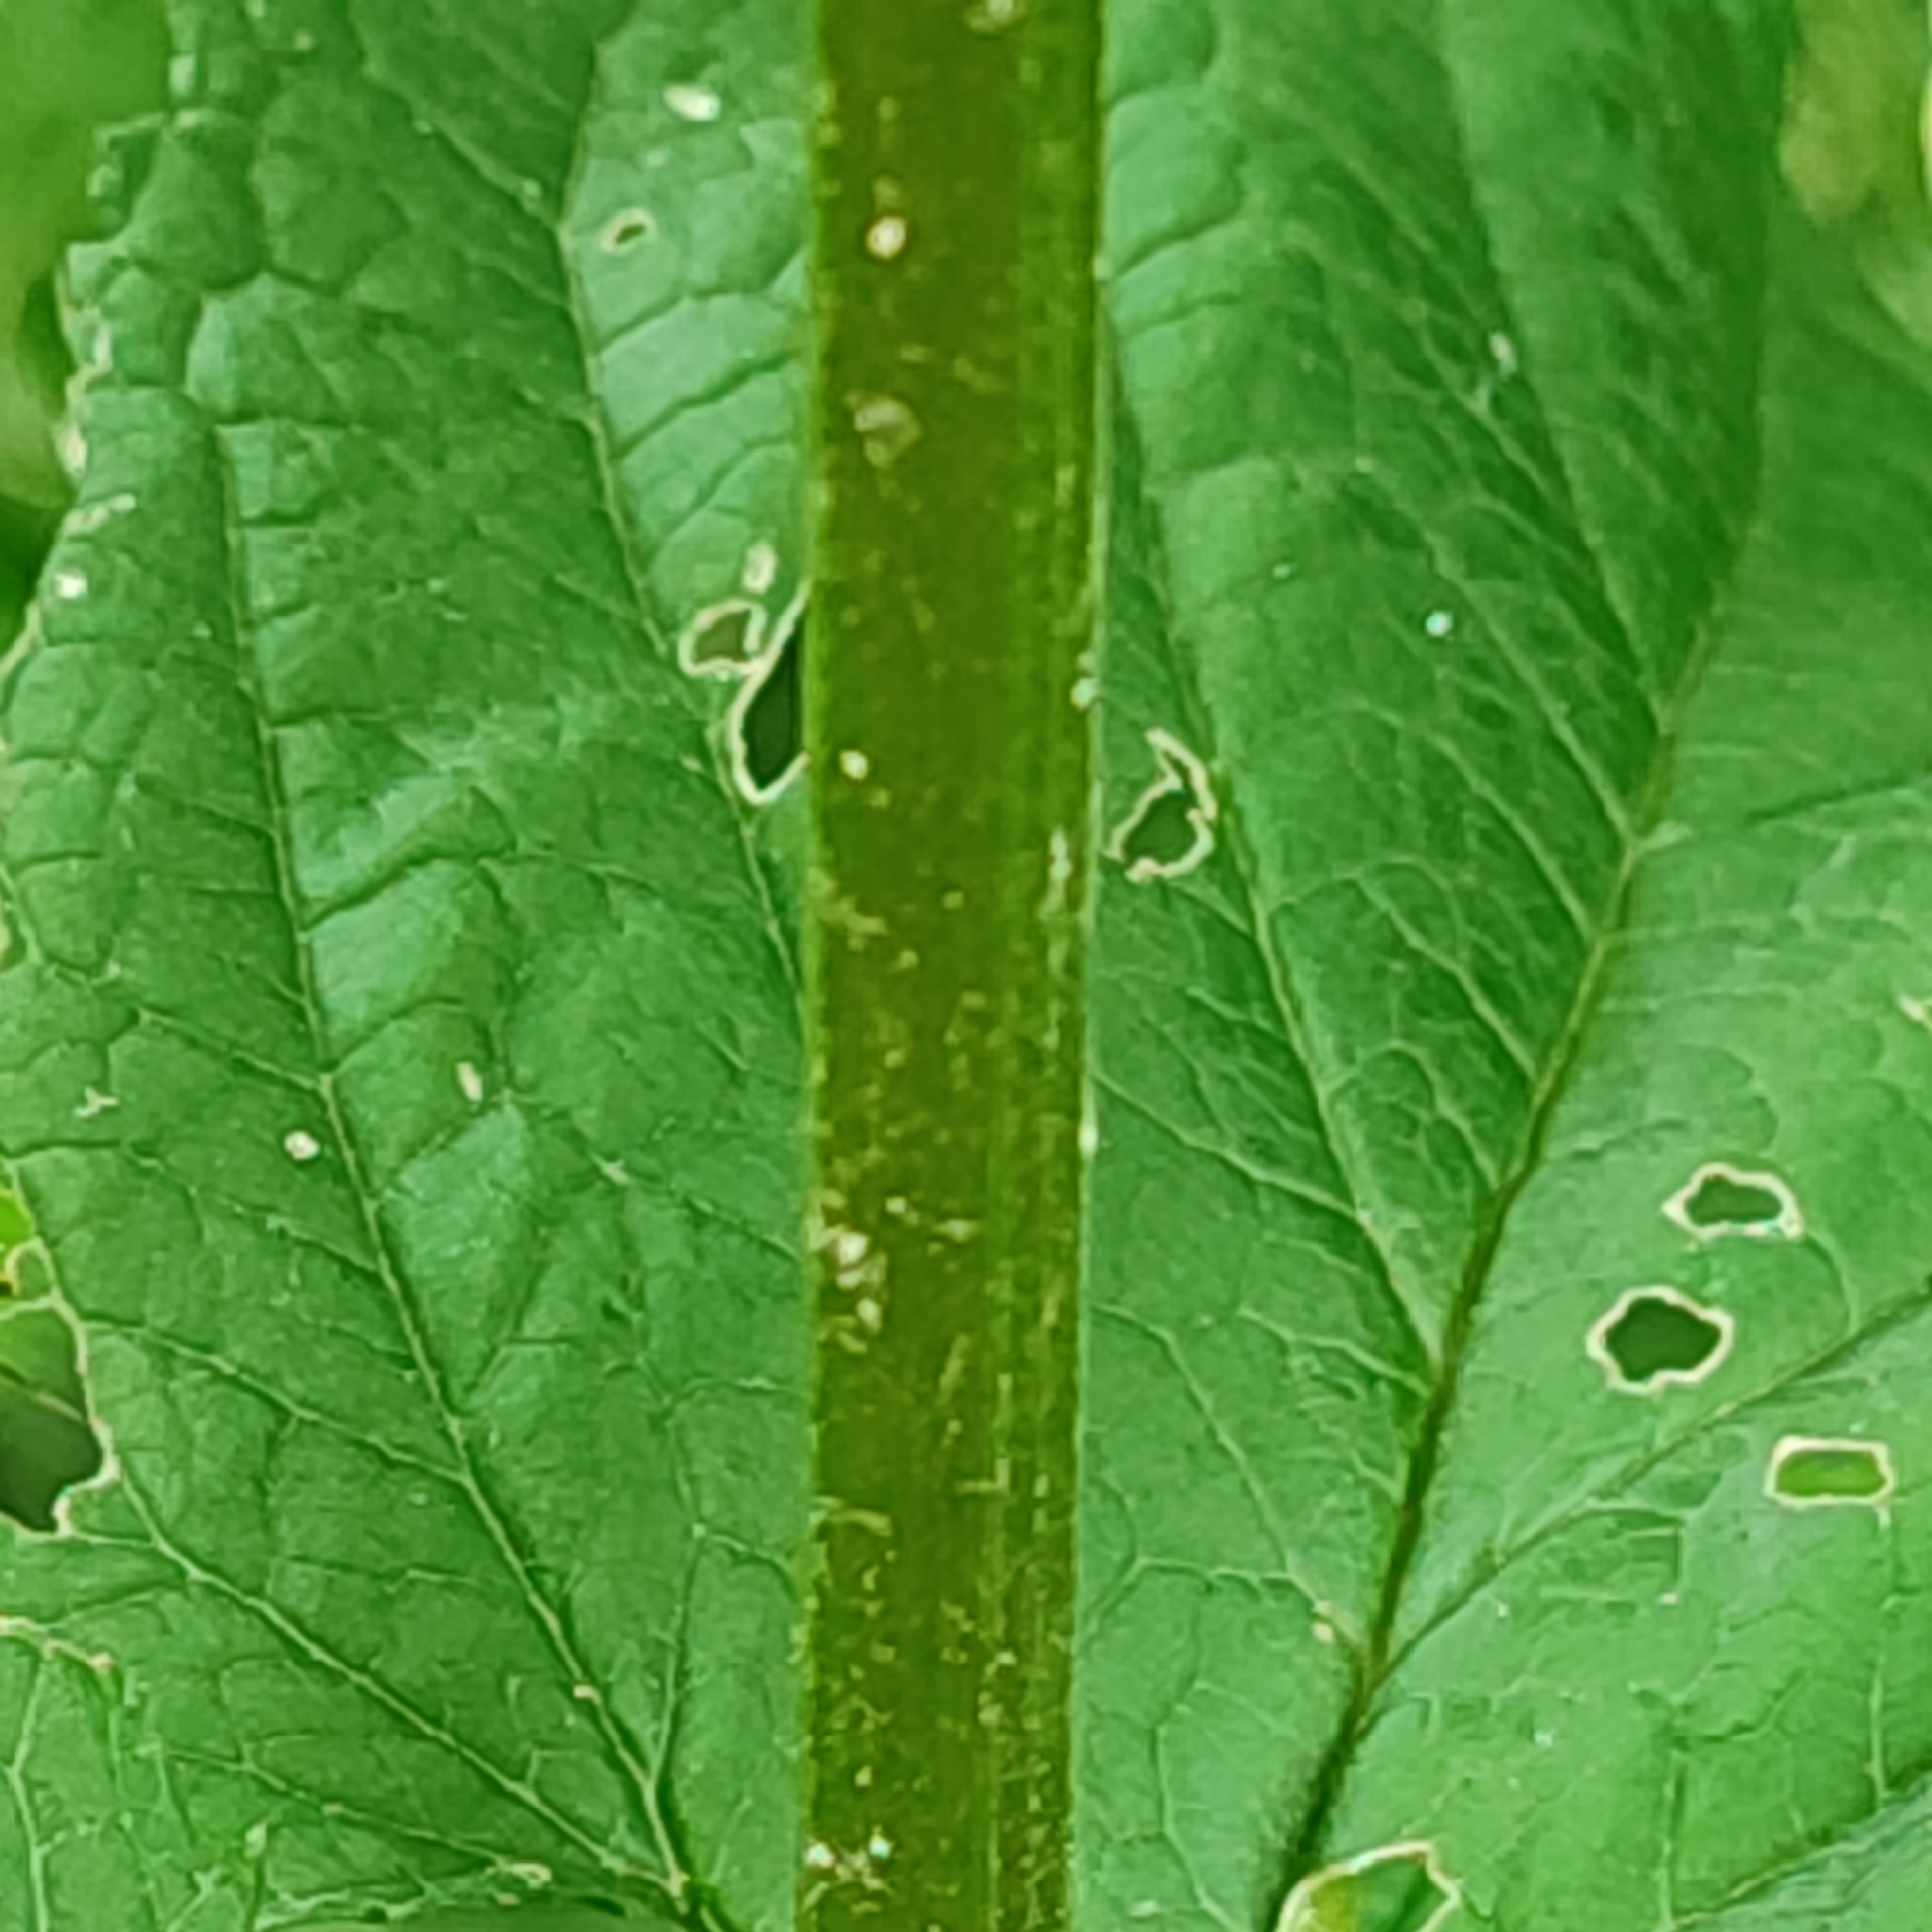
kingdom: Plantae
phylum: Tracheophyta
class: Magnoliopsida
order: Lamiales
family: Scrophulariaceae
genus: Scrophularia
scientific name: Scrophularia nodosa
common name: Common figwort
